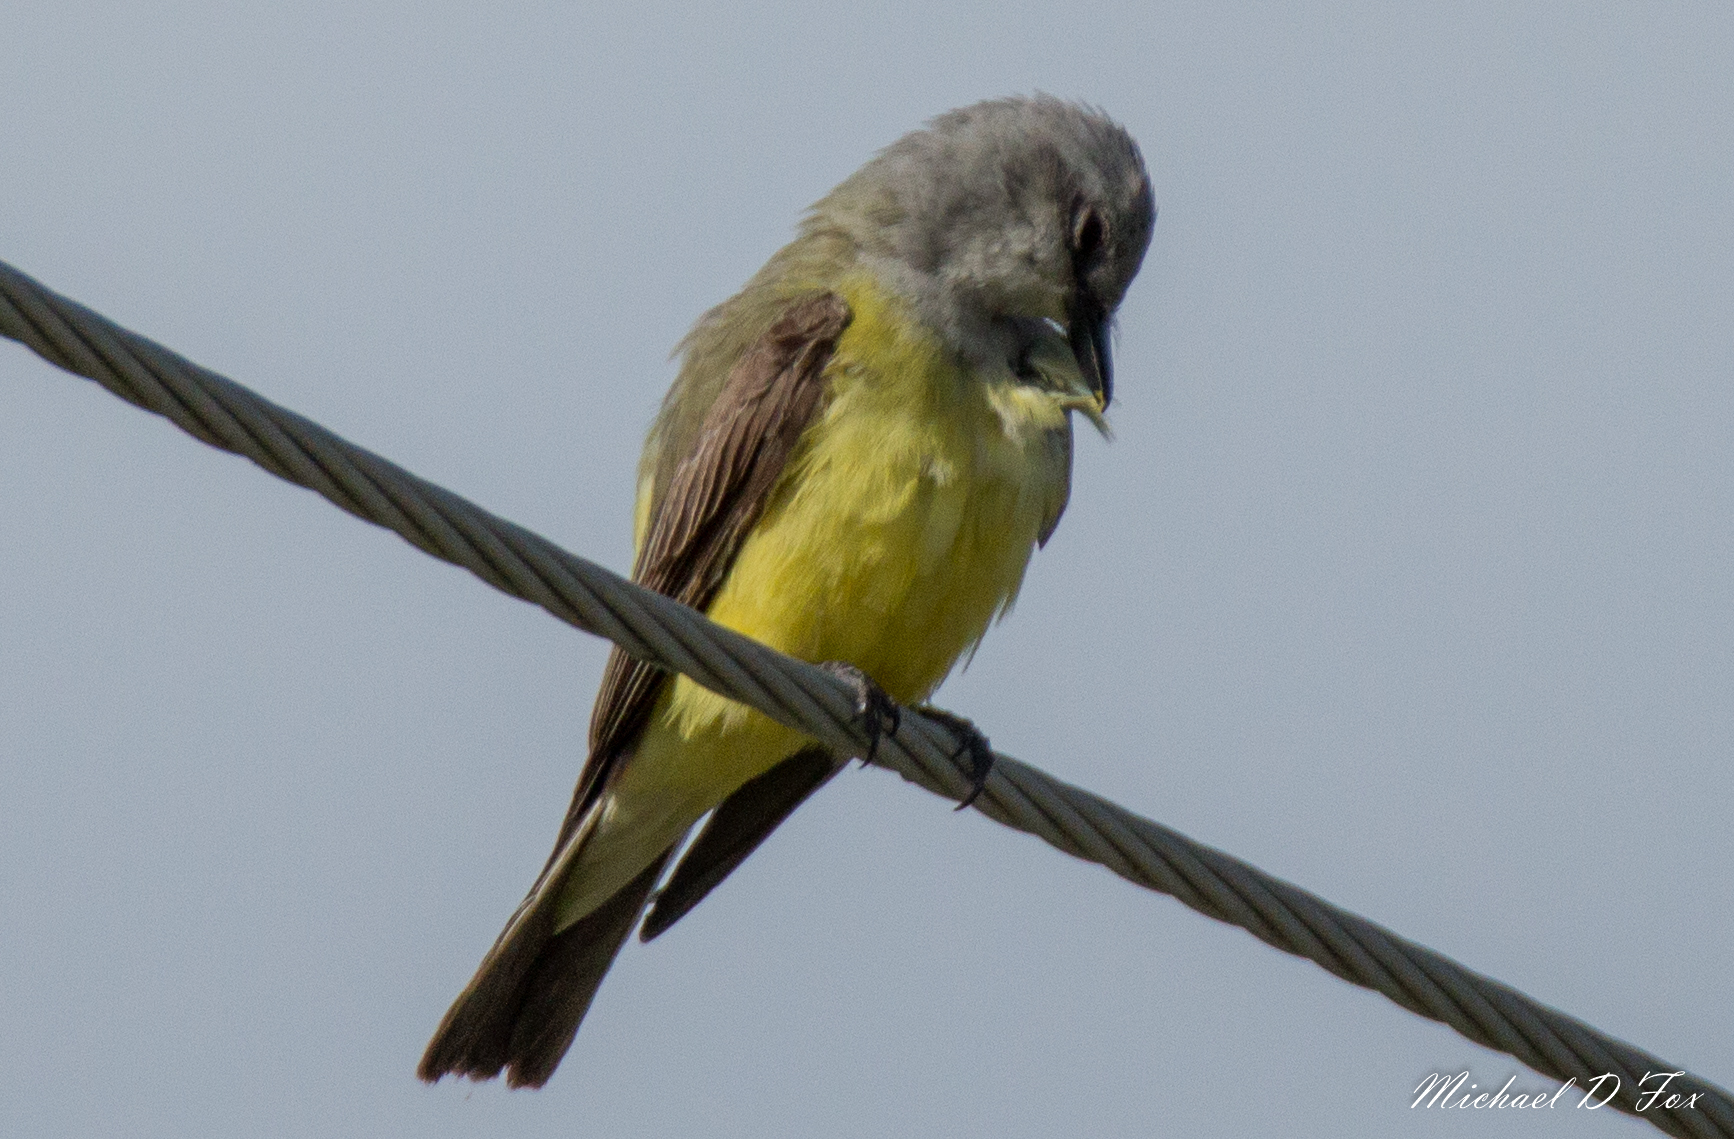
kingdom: Animalia
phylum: Chordata
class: Aves
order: Passeriformes
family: Tyrannidae
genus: Tyrannus
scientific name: Tyrannus verticalis
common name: Western kingbird
